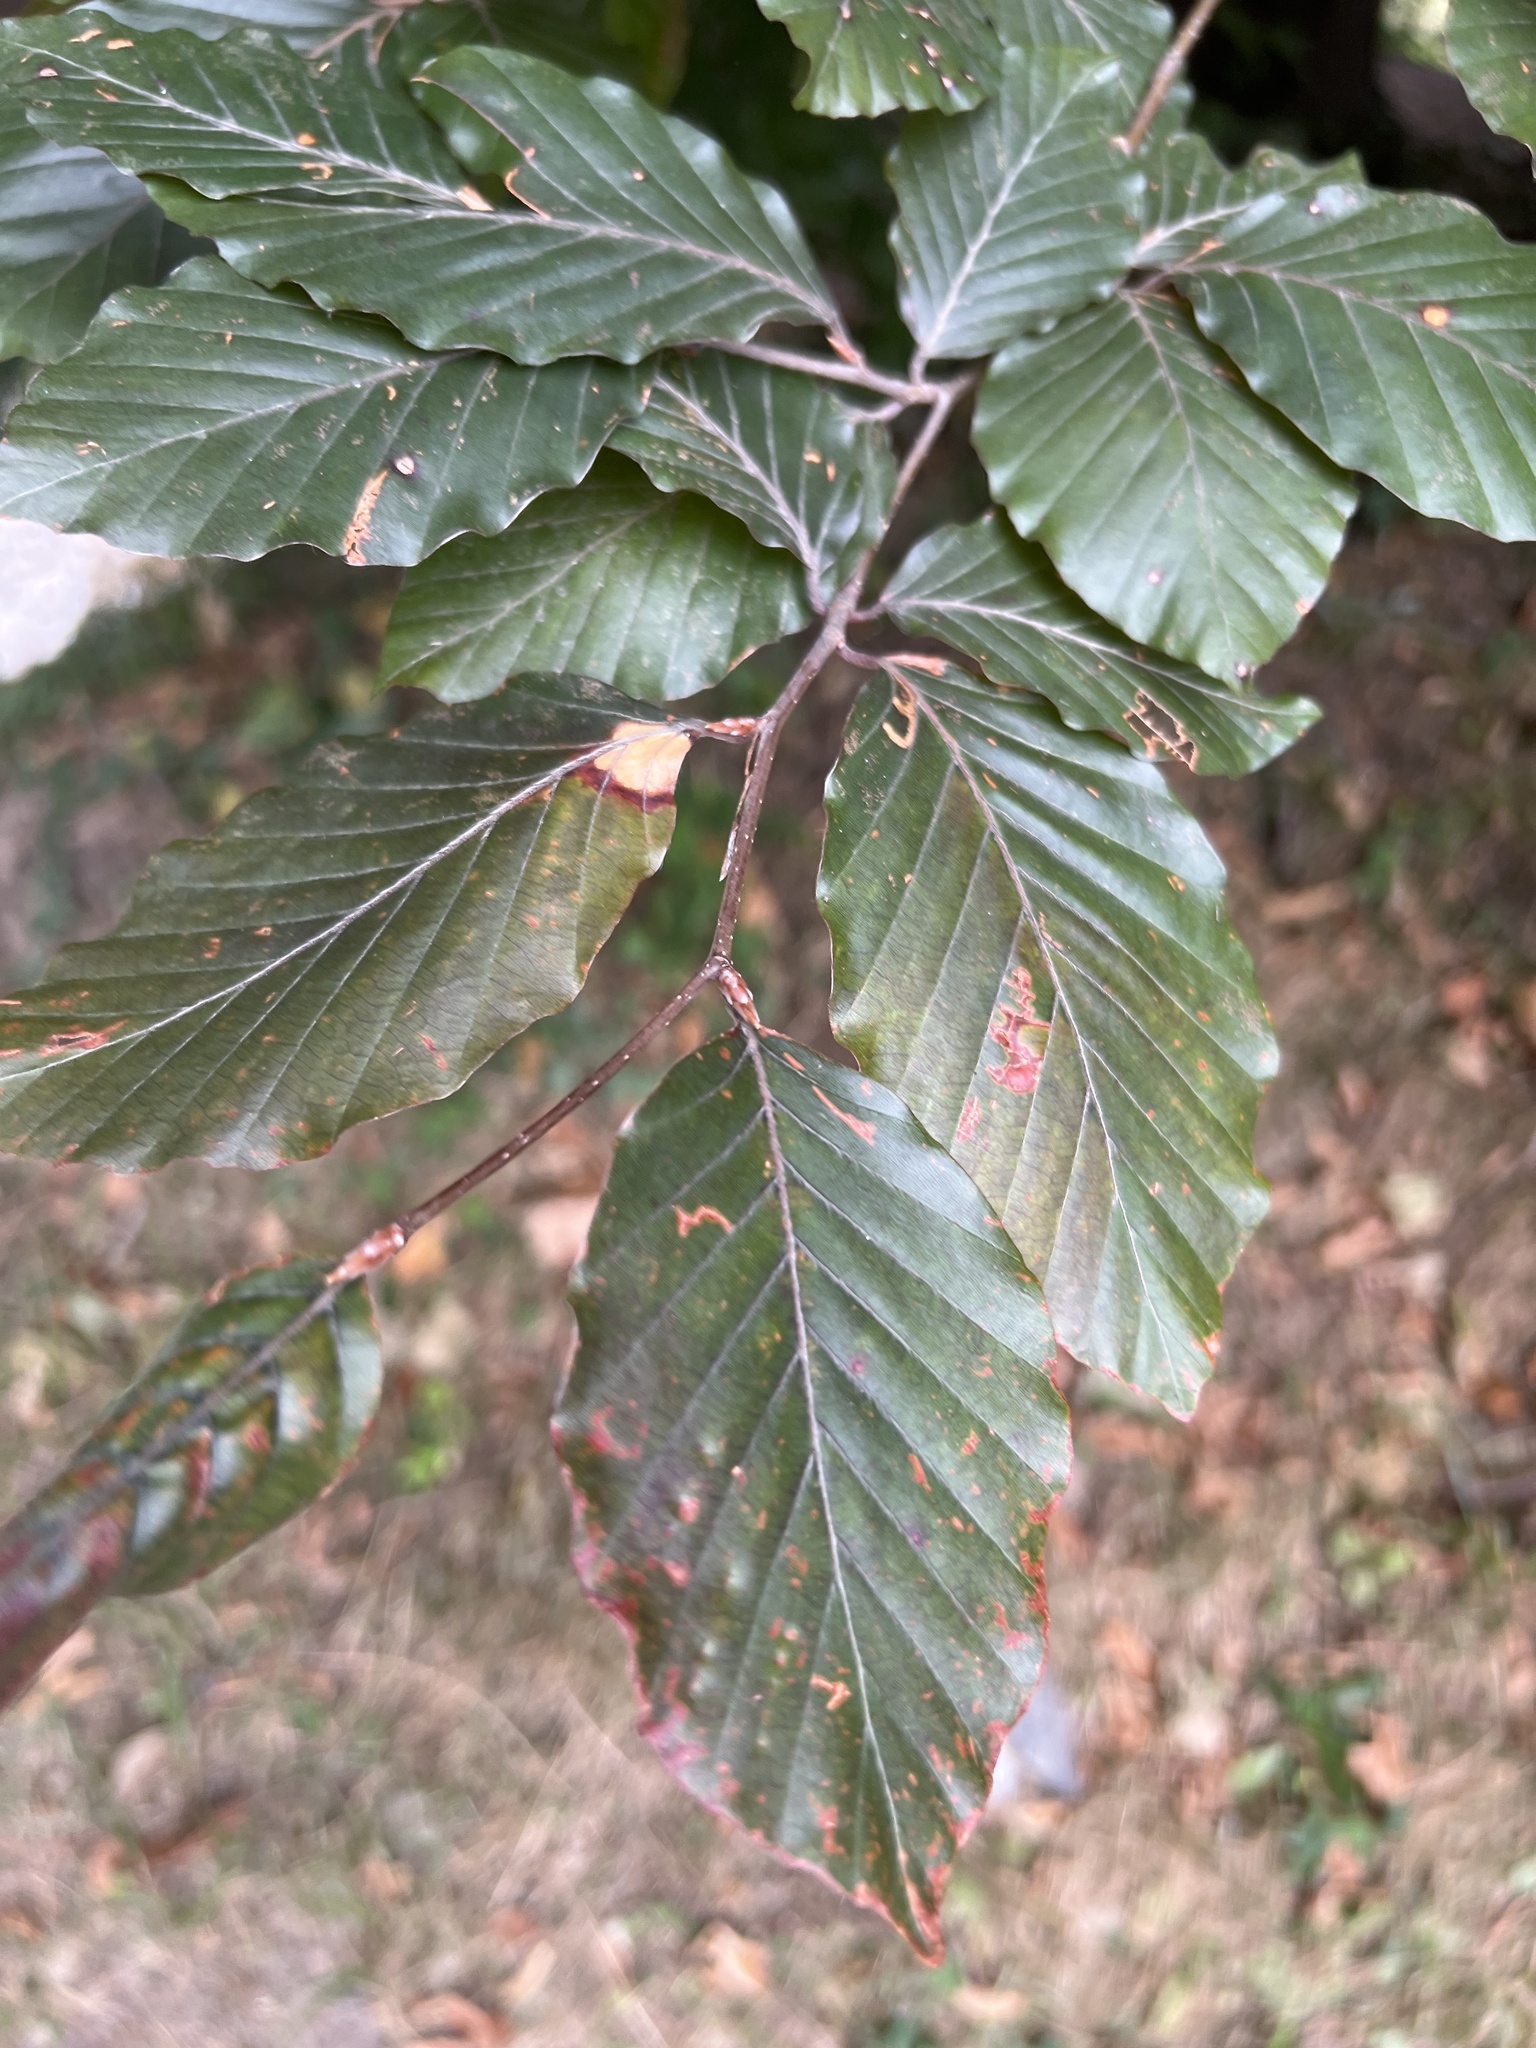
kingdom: Plantae
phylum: Tracheophyta
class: Magnoliopsida
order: Fagales
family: Fagaceae
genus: Fagus
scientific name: Fagus sylvatica
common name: Beech
